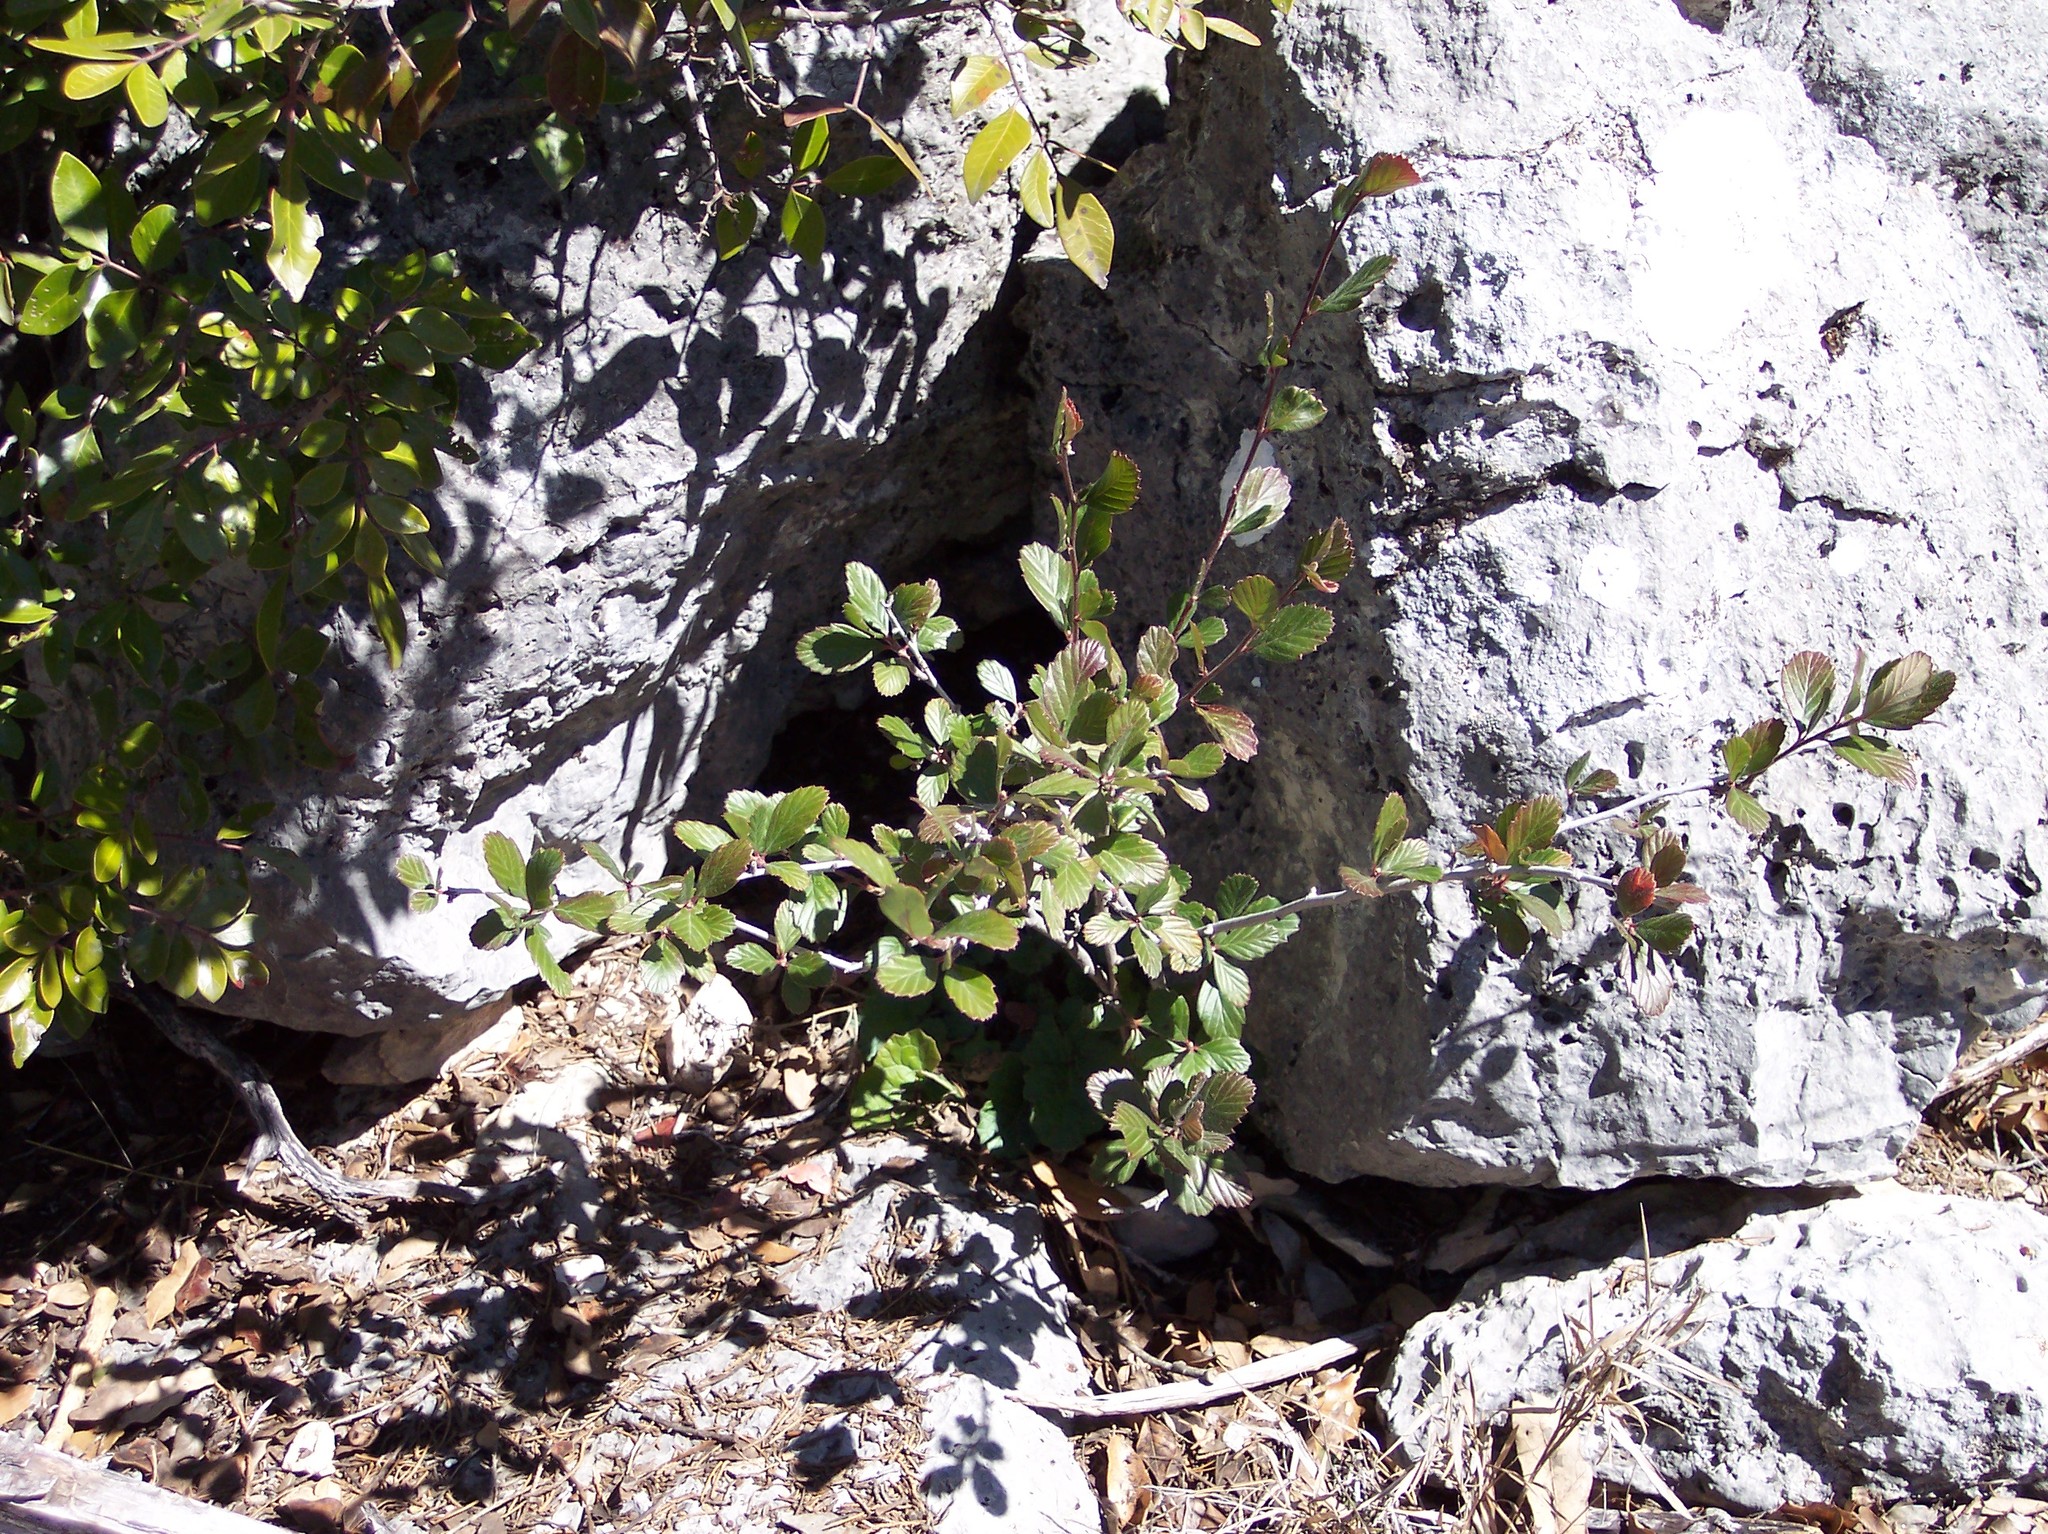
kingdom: Plantae
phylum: Tracheophyta
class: Magnoliopsida
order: Rosales
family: Rosaceae
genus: Cercocarpus
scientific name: Cercocarpus montanus
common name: Alder-leaf cercocarpus
